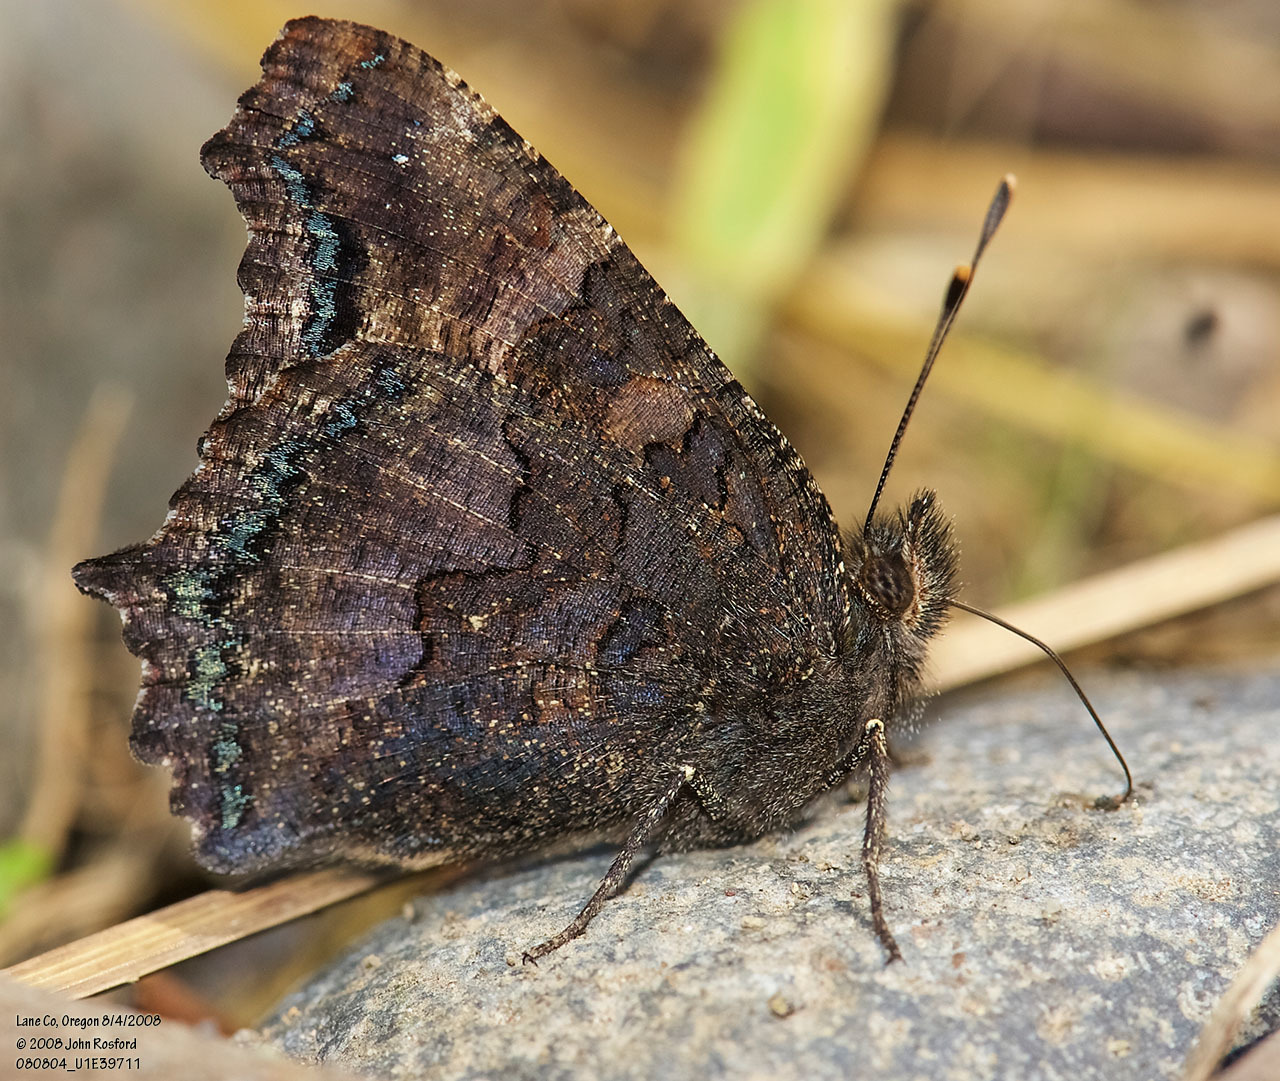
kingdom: Animalia
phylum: Arthropoda
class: Insecta
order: Lepidoptera
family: Nymphalidae
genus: Nymphalis
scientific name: Nymphalis californica
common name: California tortoiseshell
